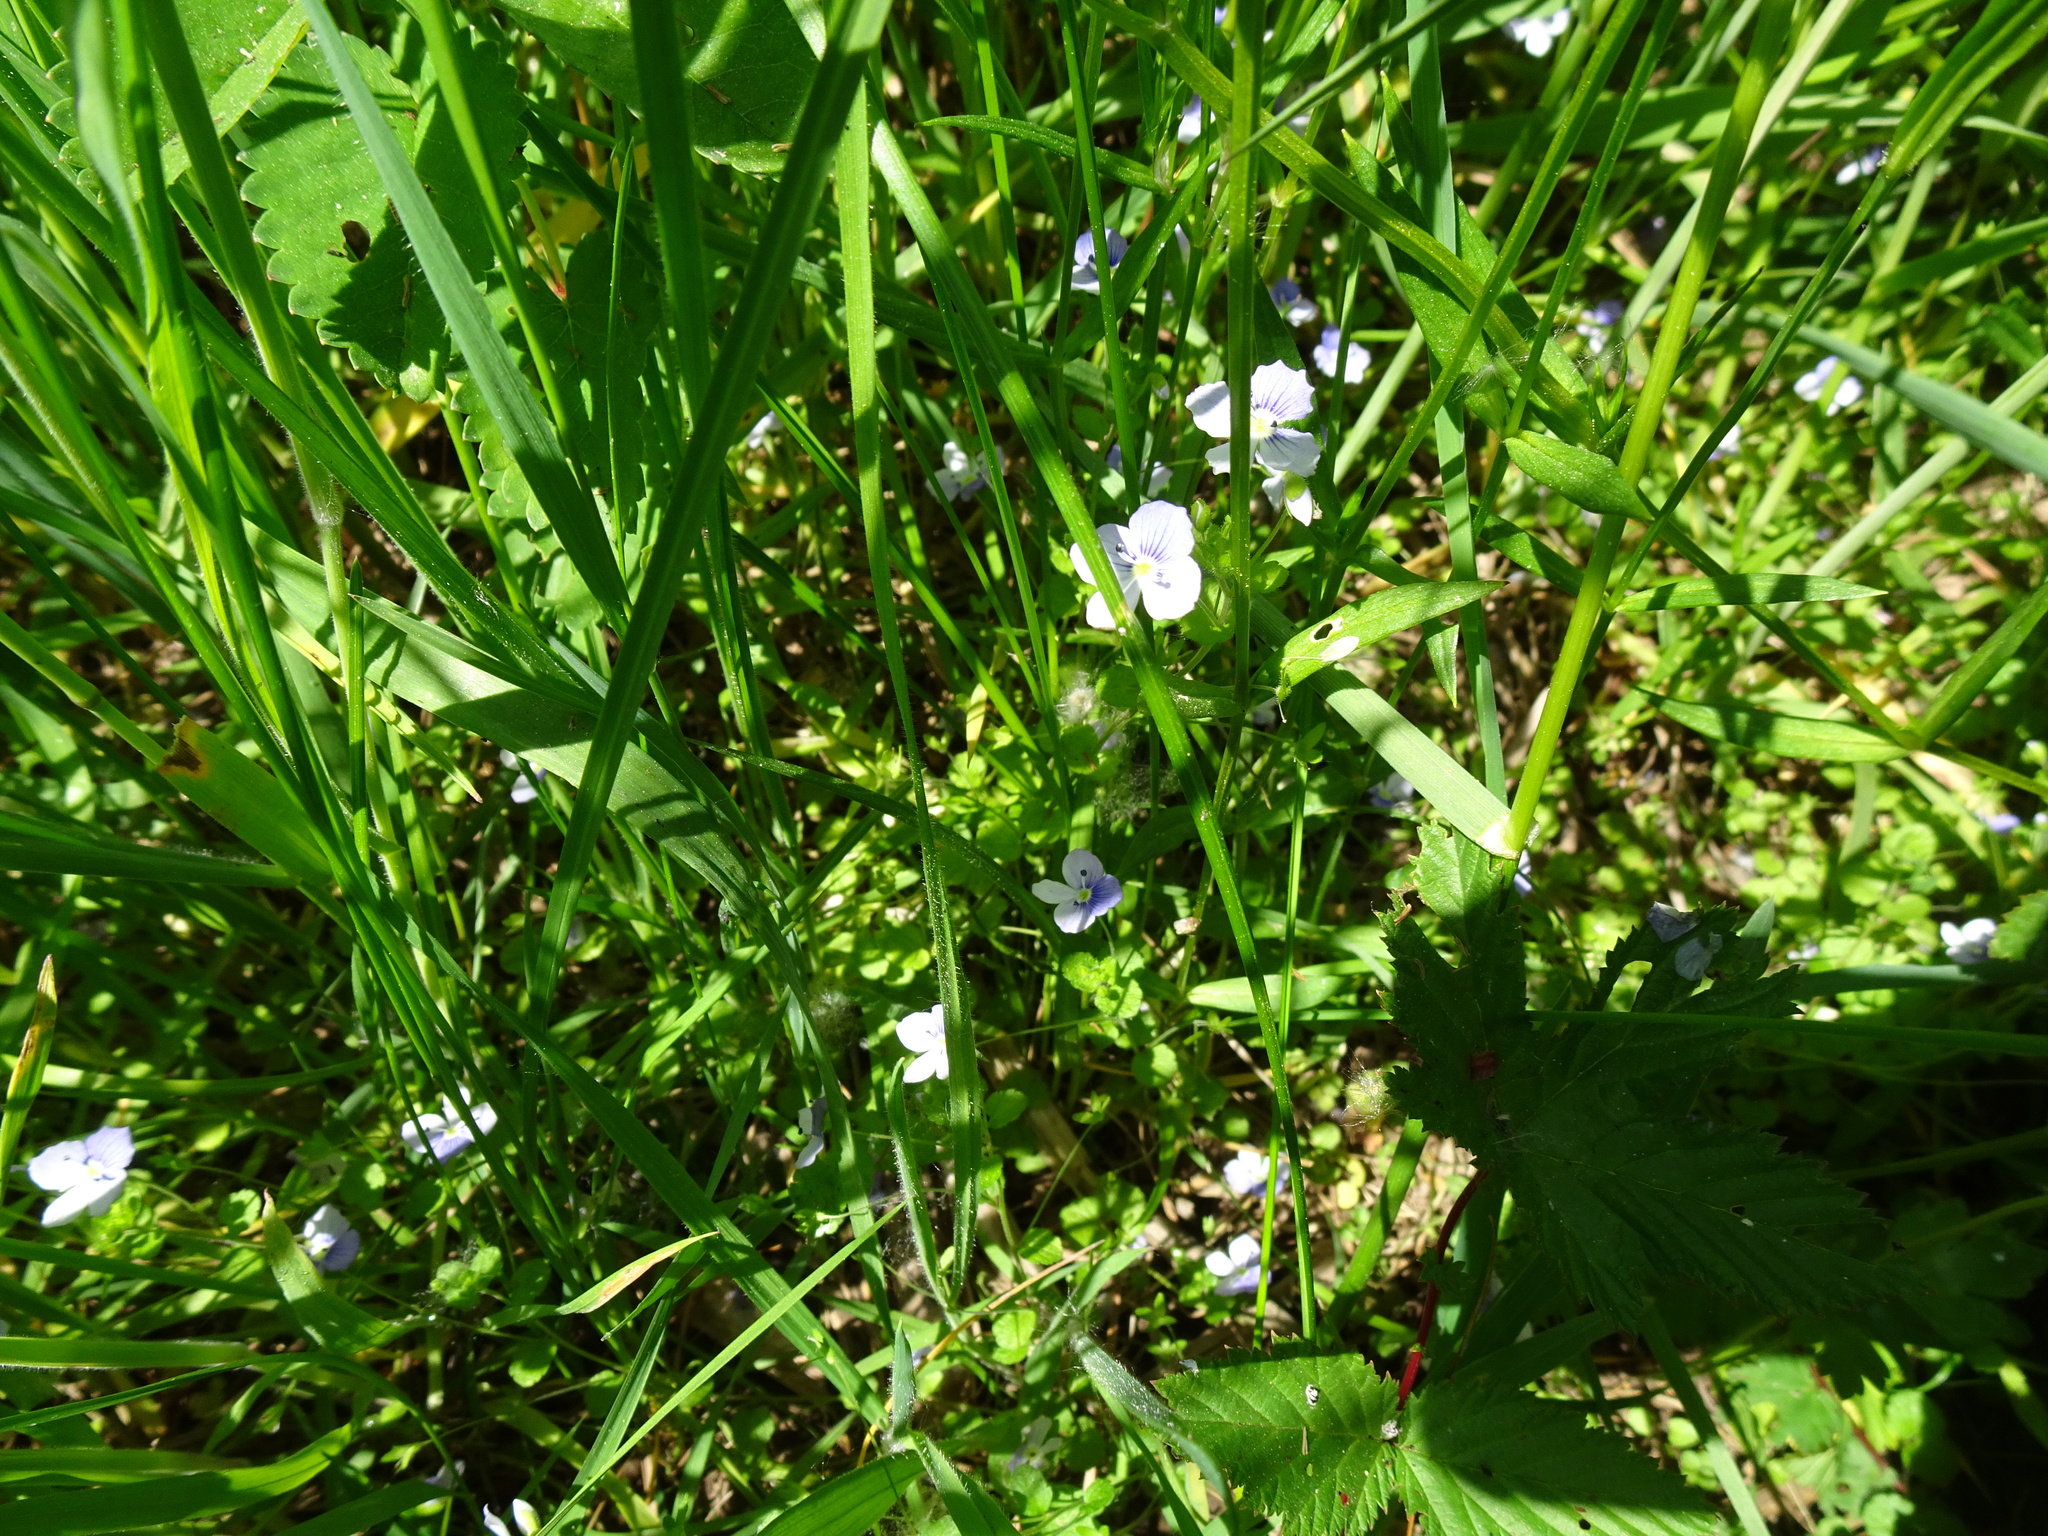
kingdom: Plantae
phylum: Tracheophyta
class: Magnoliopsida
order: Lamiales
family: Plantaginaceae
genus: Veronica
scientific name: Veronica filiformis
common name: Slender speedwell
